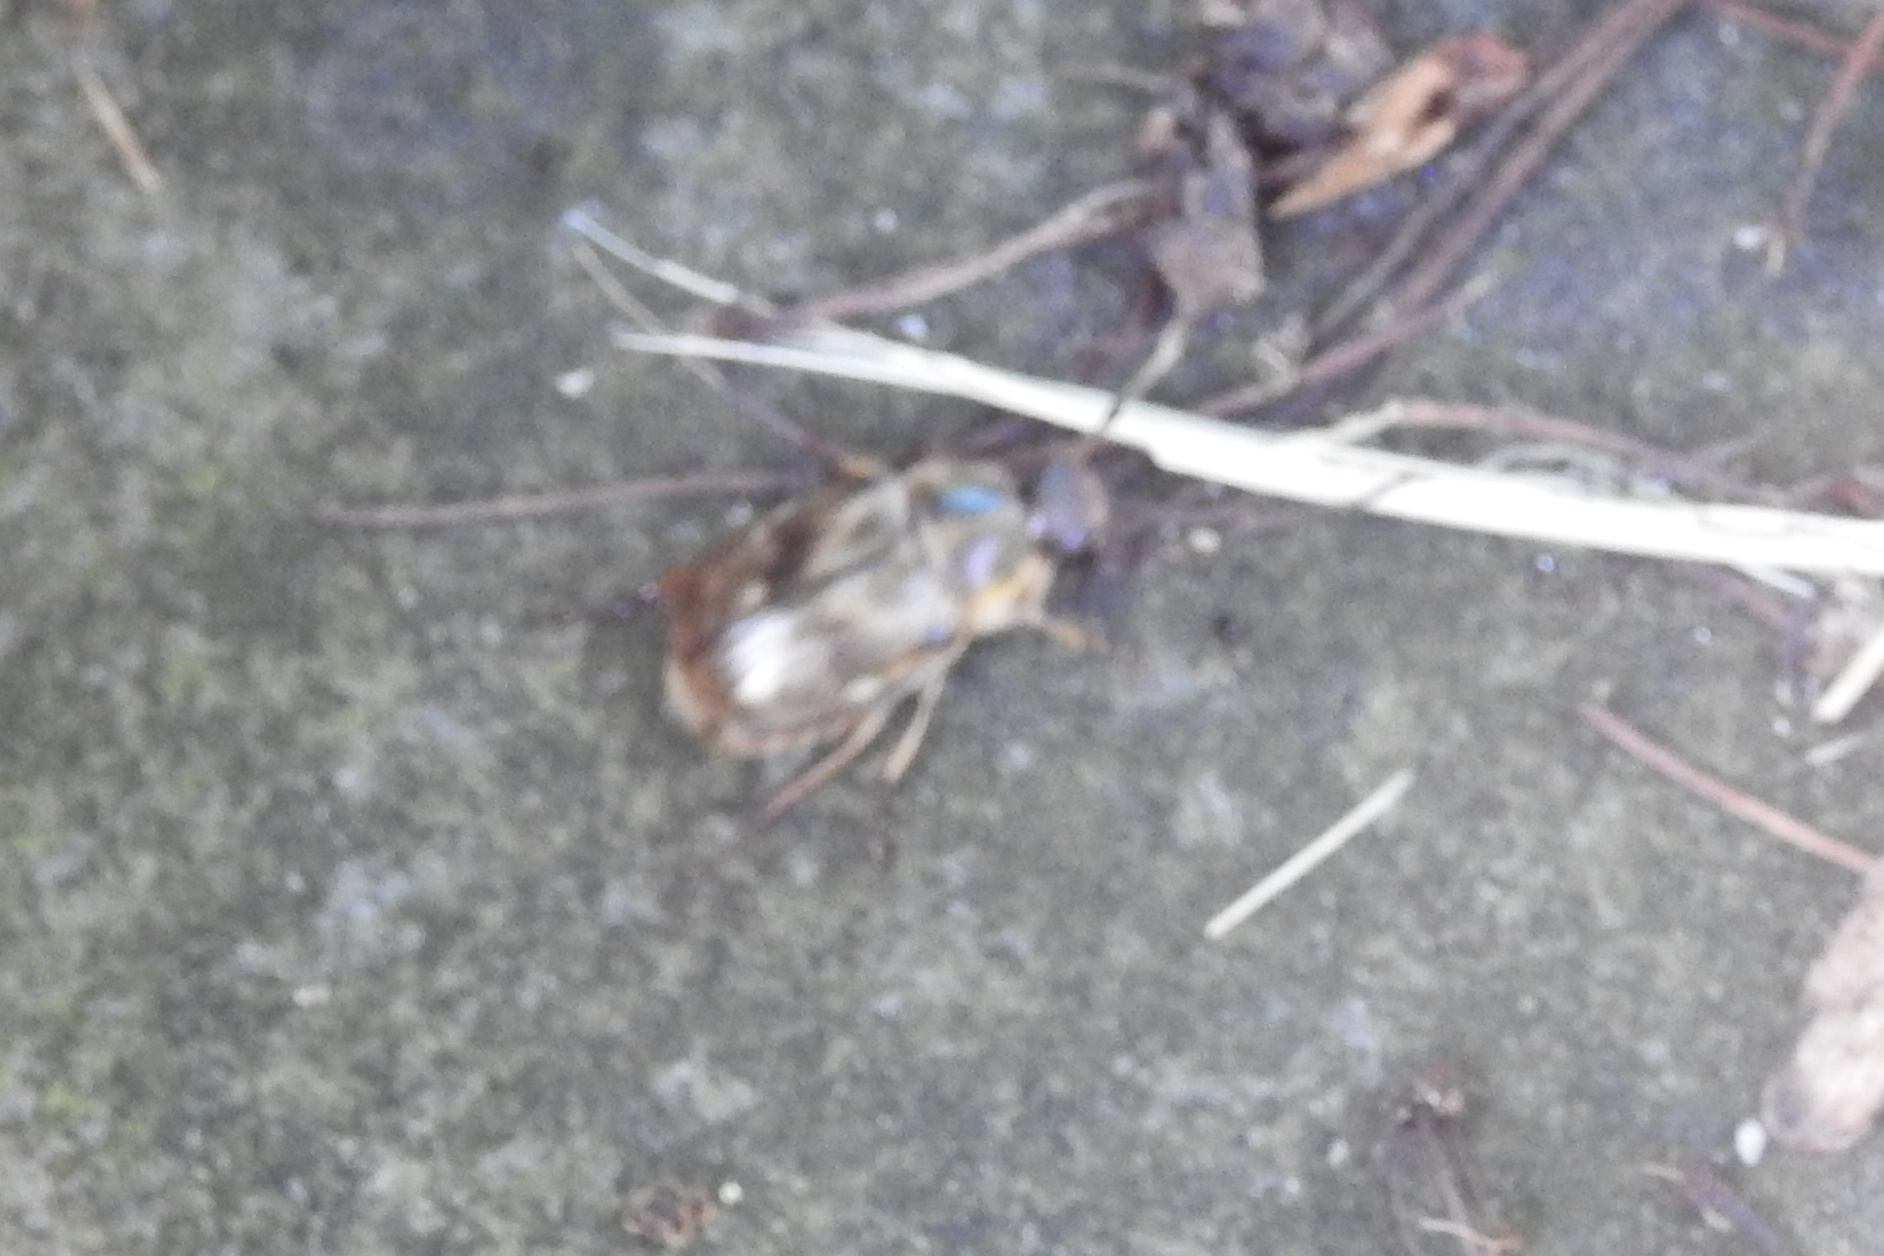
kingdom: Animalia
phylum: Arthropoda
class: Insecta
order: Coleoptera
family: Scarabaeidae
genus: Exomala
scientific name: Exomala orientalis
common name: Oriental beetle
